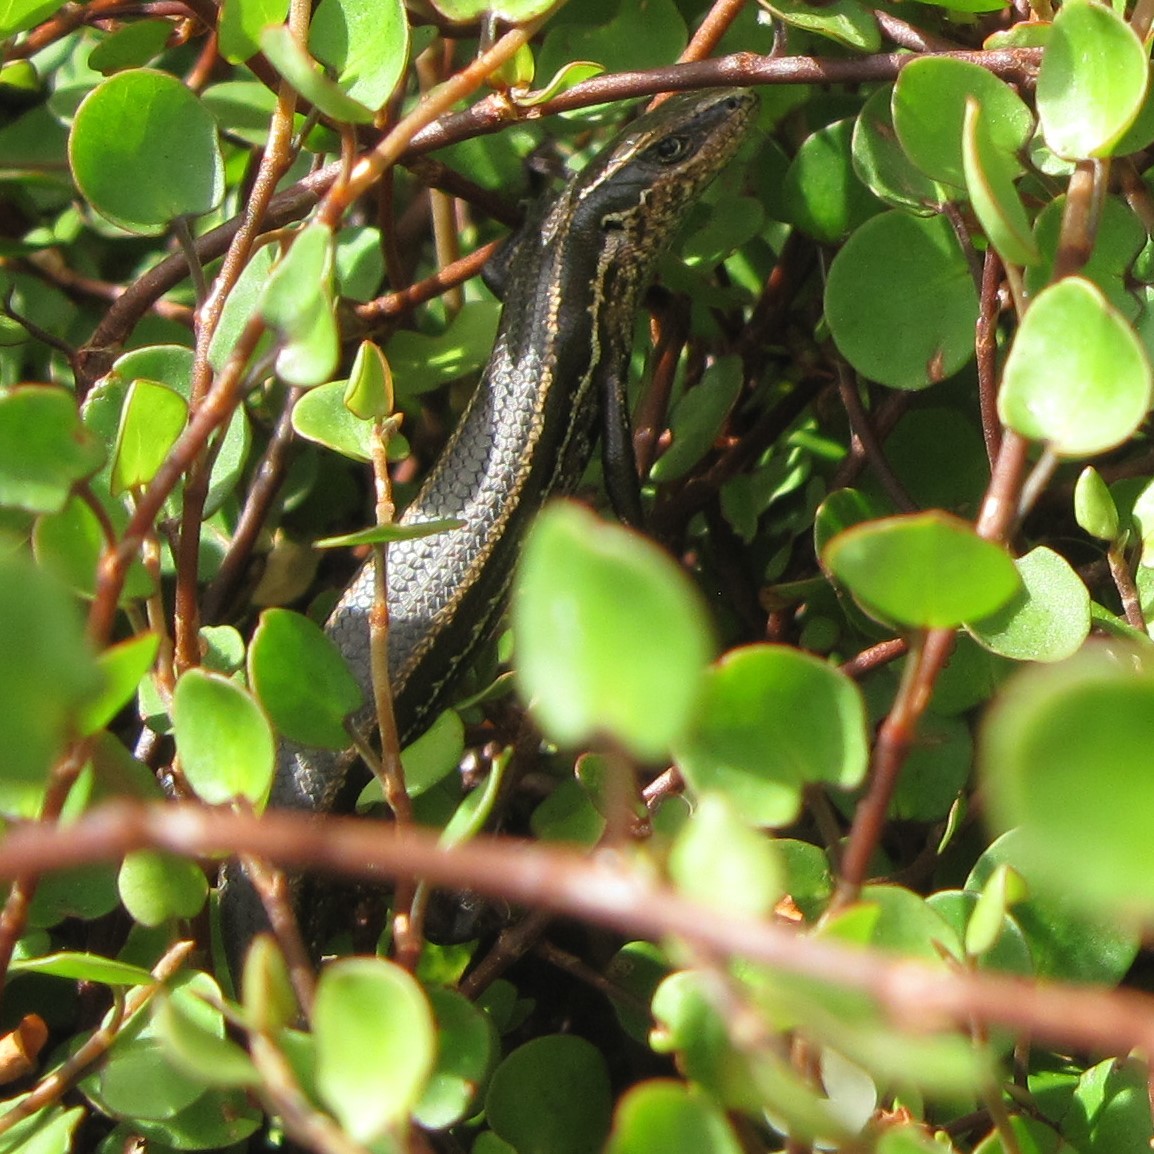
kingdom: Animalia
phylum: Chordata
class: Squamata
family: Scincidae
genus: Oligosoma
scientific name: Oligosoma polychroma
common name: Common new zealand skink
